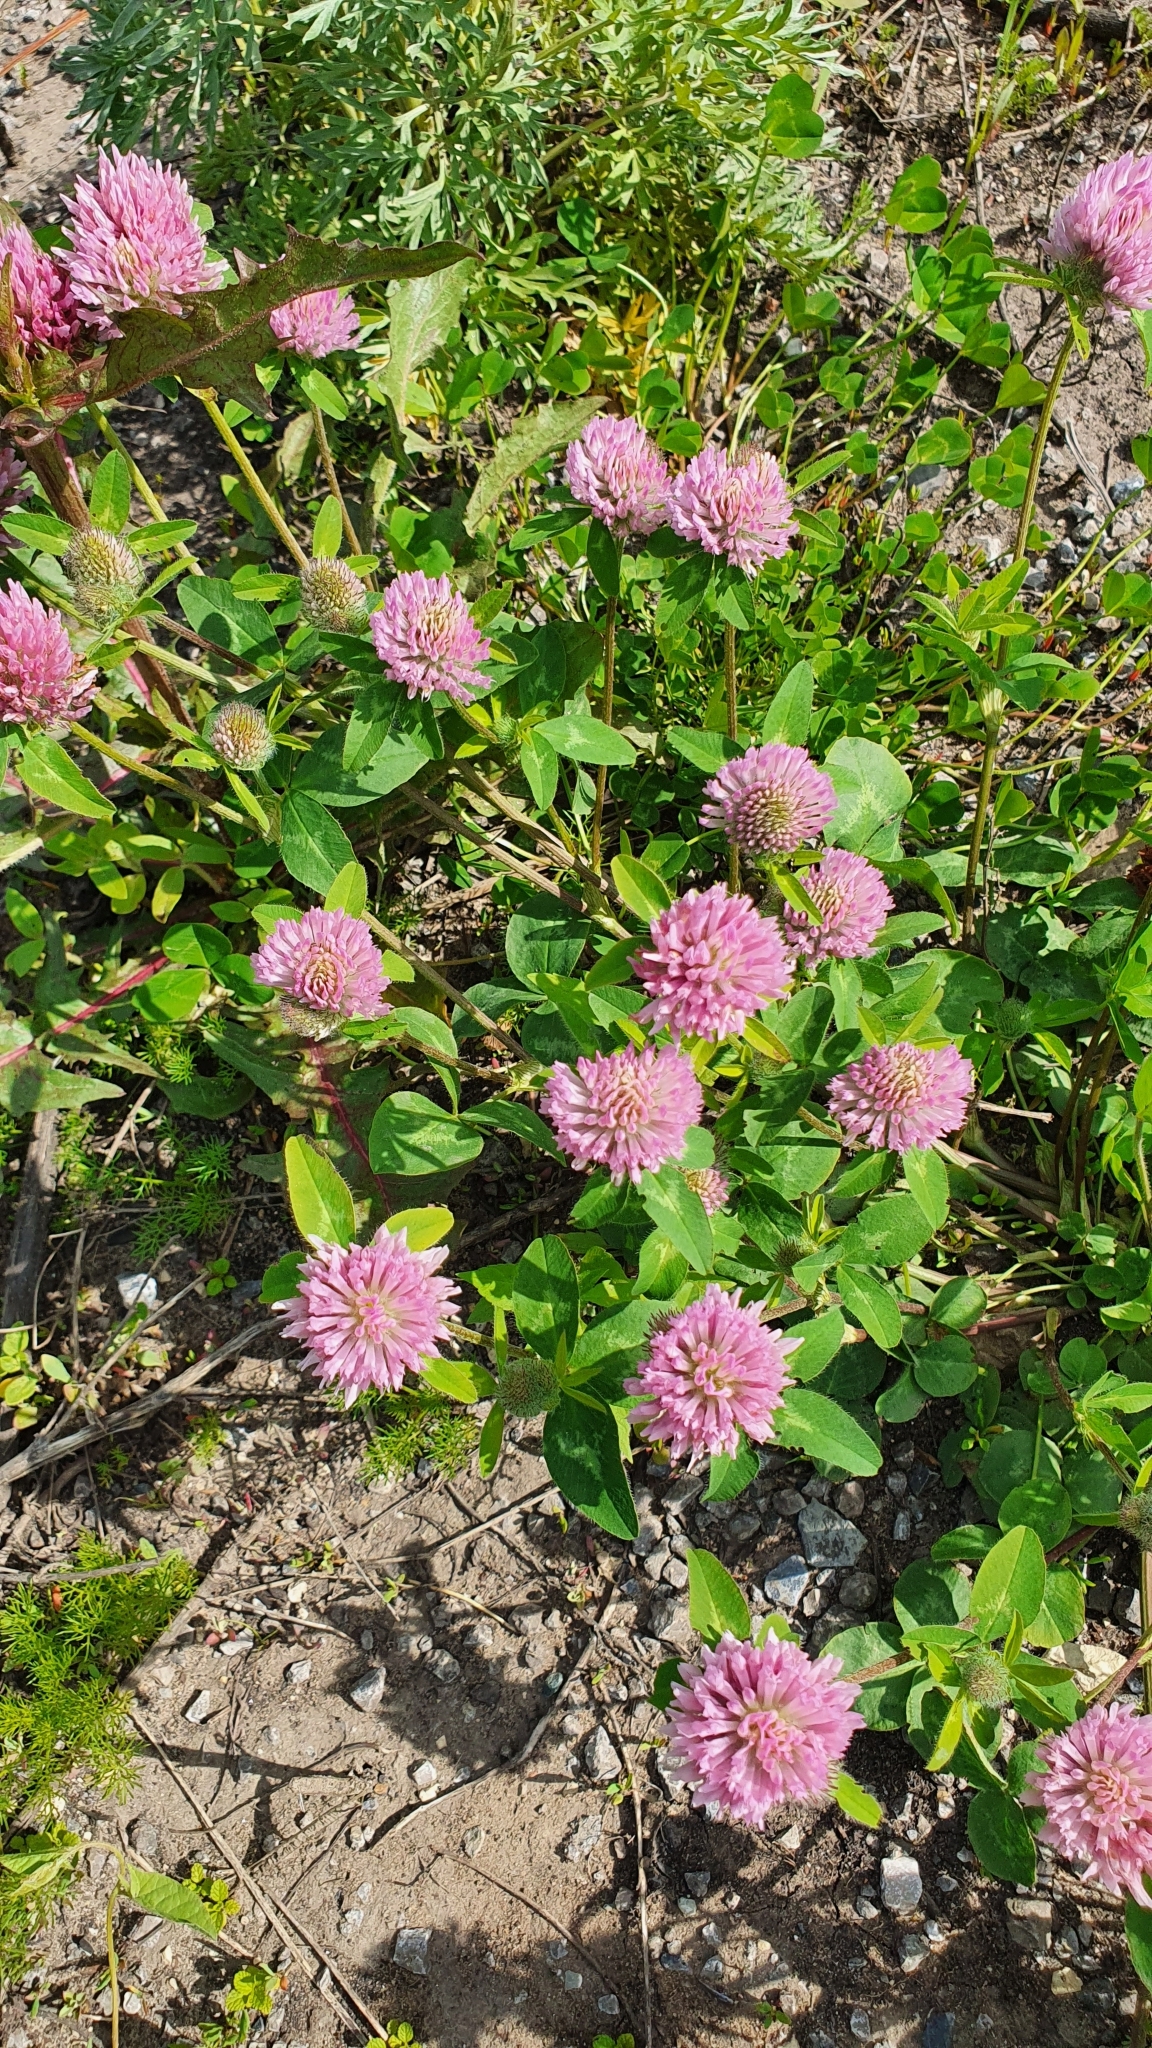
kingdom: Plantae
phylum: Tracheophyta
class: Magnoliopsida
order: Fabales
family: Fabaceae
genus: Trifolium
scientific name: Trifolium pratense
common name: Red clover
